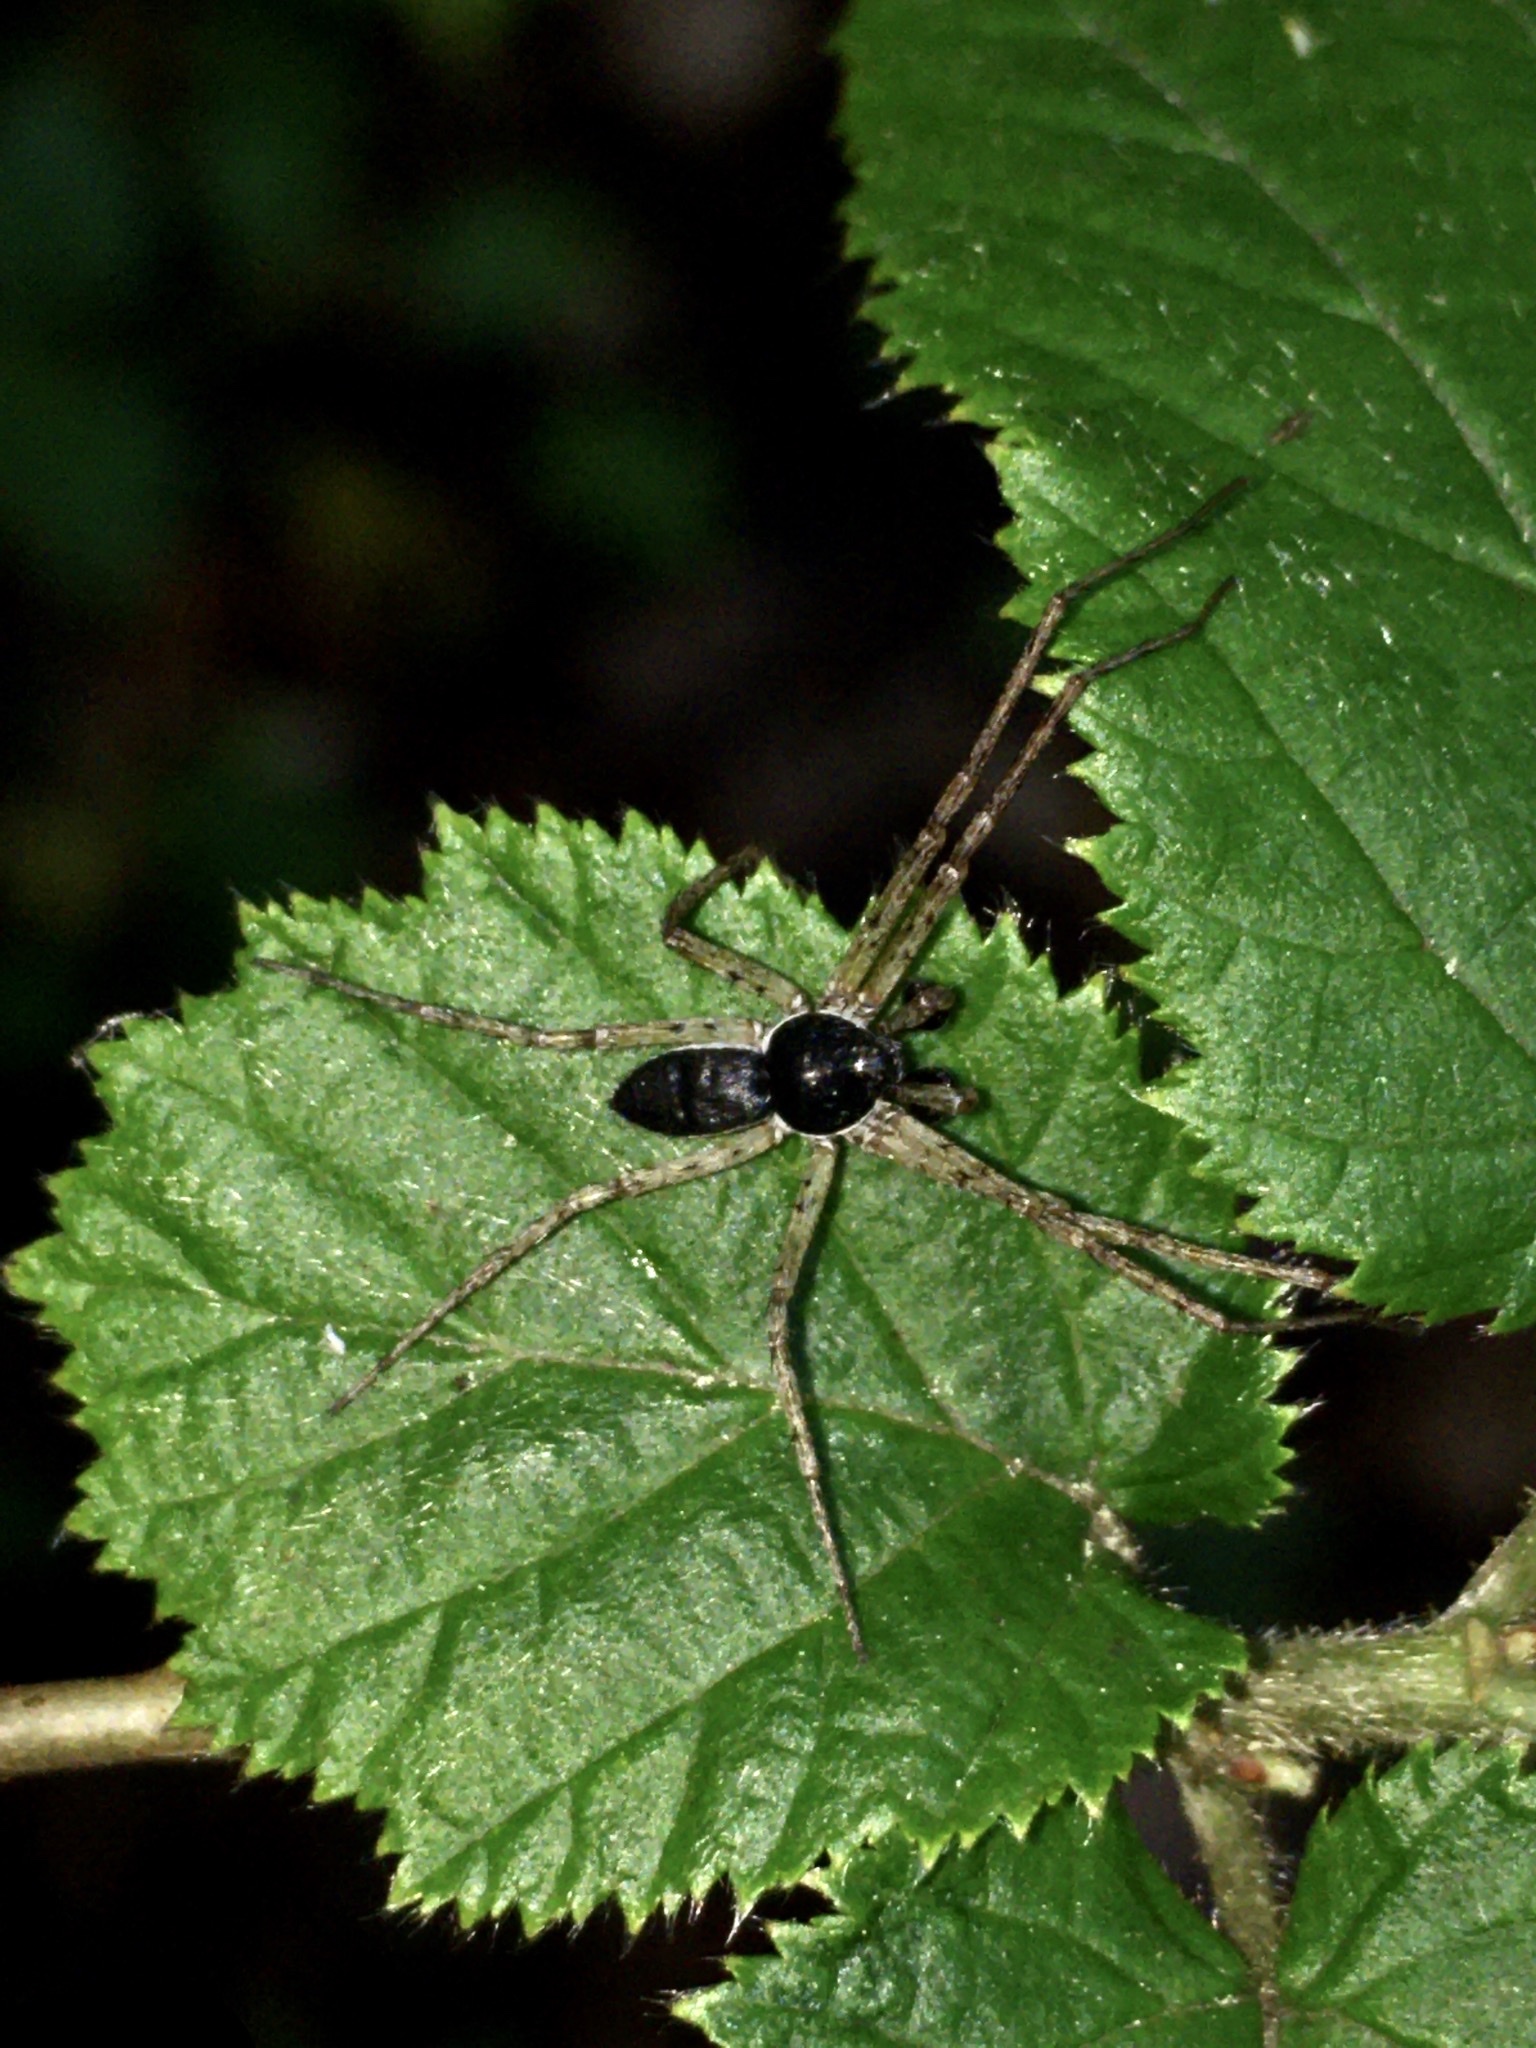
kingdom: Animalia
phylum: Arthropoda
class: Arachnida
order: Araneae
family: Philodromidae
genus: Philodromus
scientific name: Philodromus dispar
